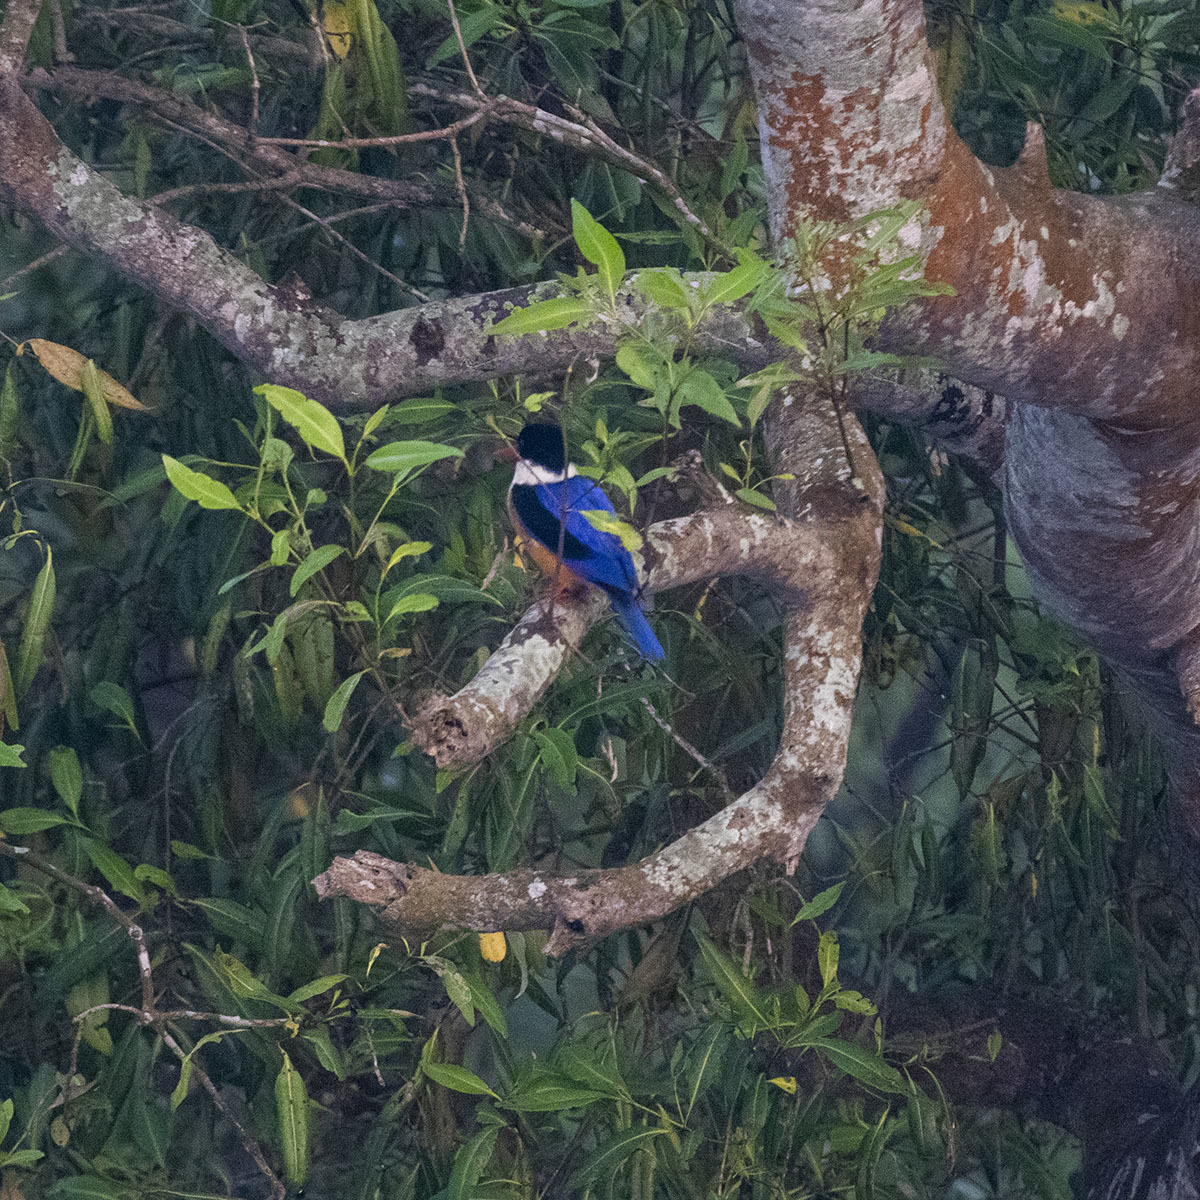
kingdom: Animalia
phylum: Chordata
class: Aves
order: Coraciiformes
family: Alcedinidae
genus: Halcyon
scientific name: Halcyon pileata
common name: Black-capped kingfisher
